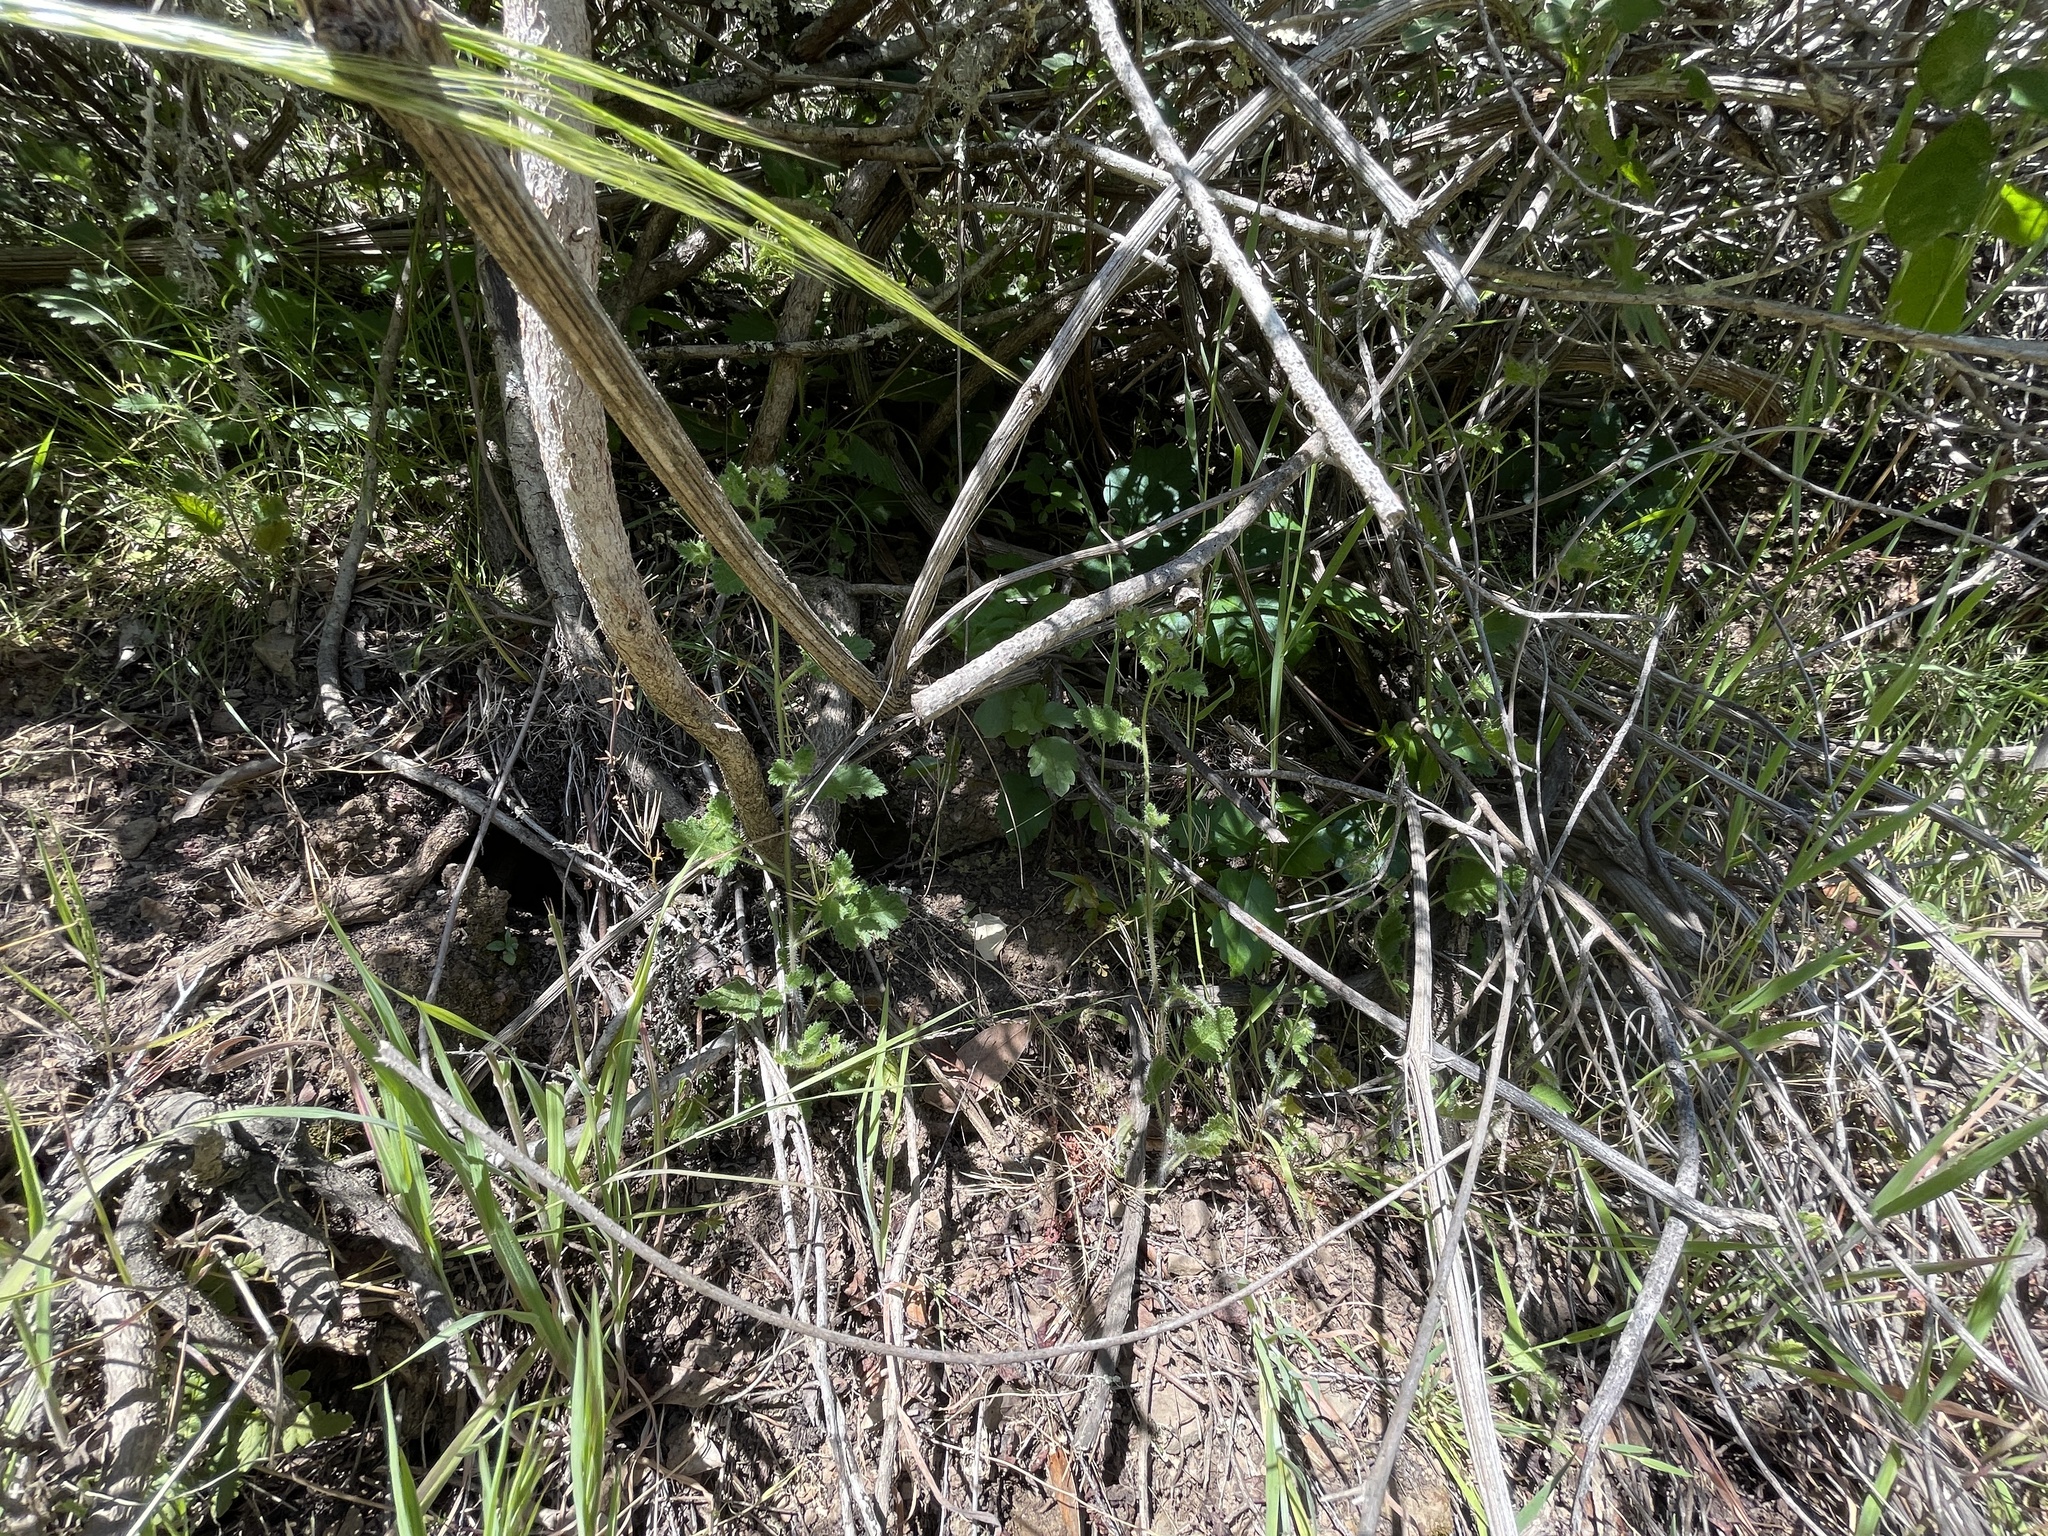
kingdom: Plantae
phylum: Tracheophyta
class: Magnoliopsida
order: Boraginales
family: Hydrophyllaceae
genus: Phacelia
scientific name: Phacelia rattanii
